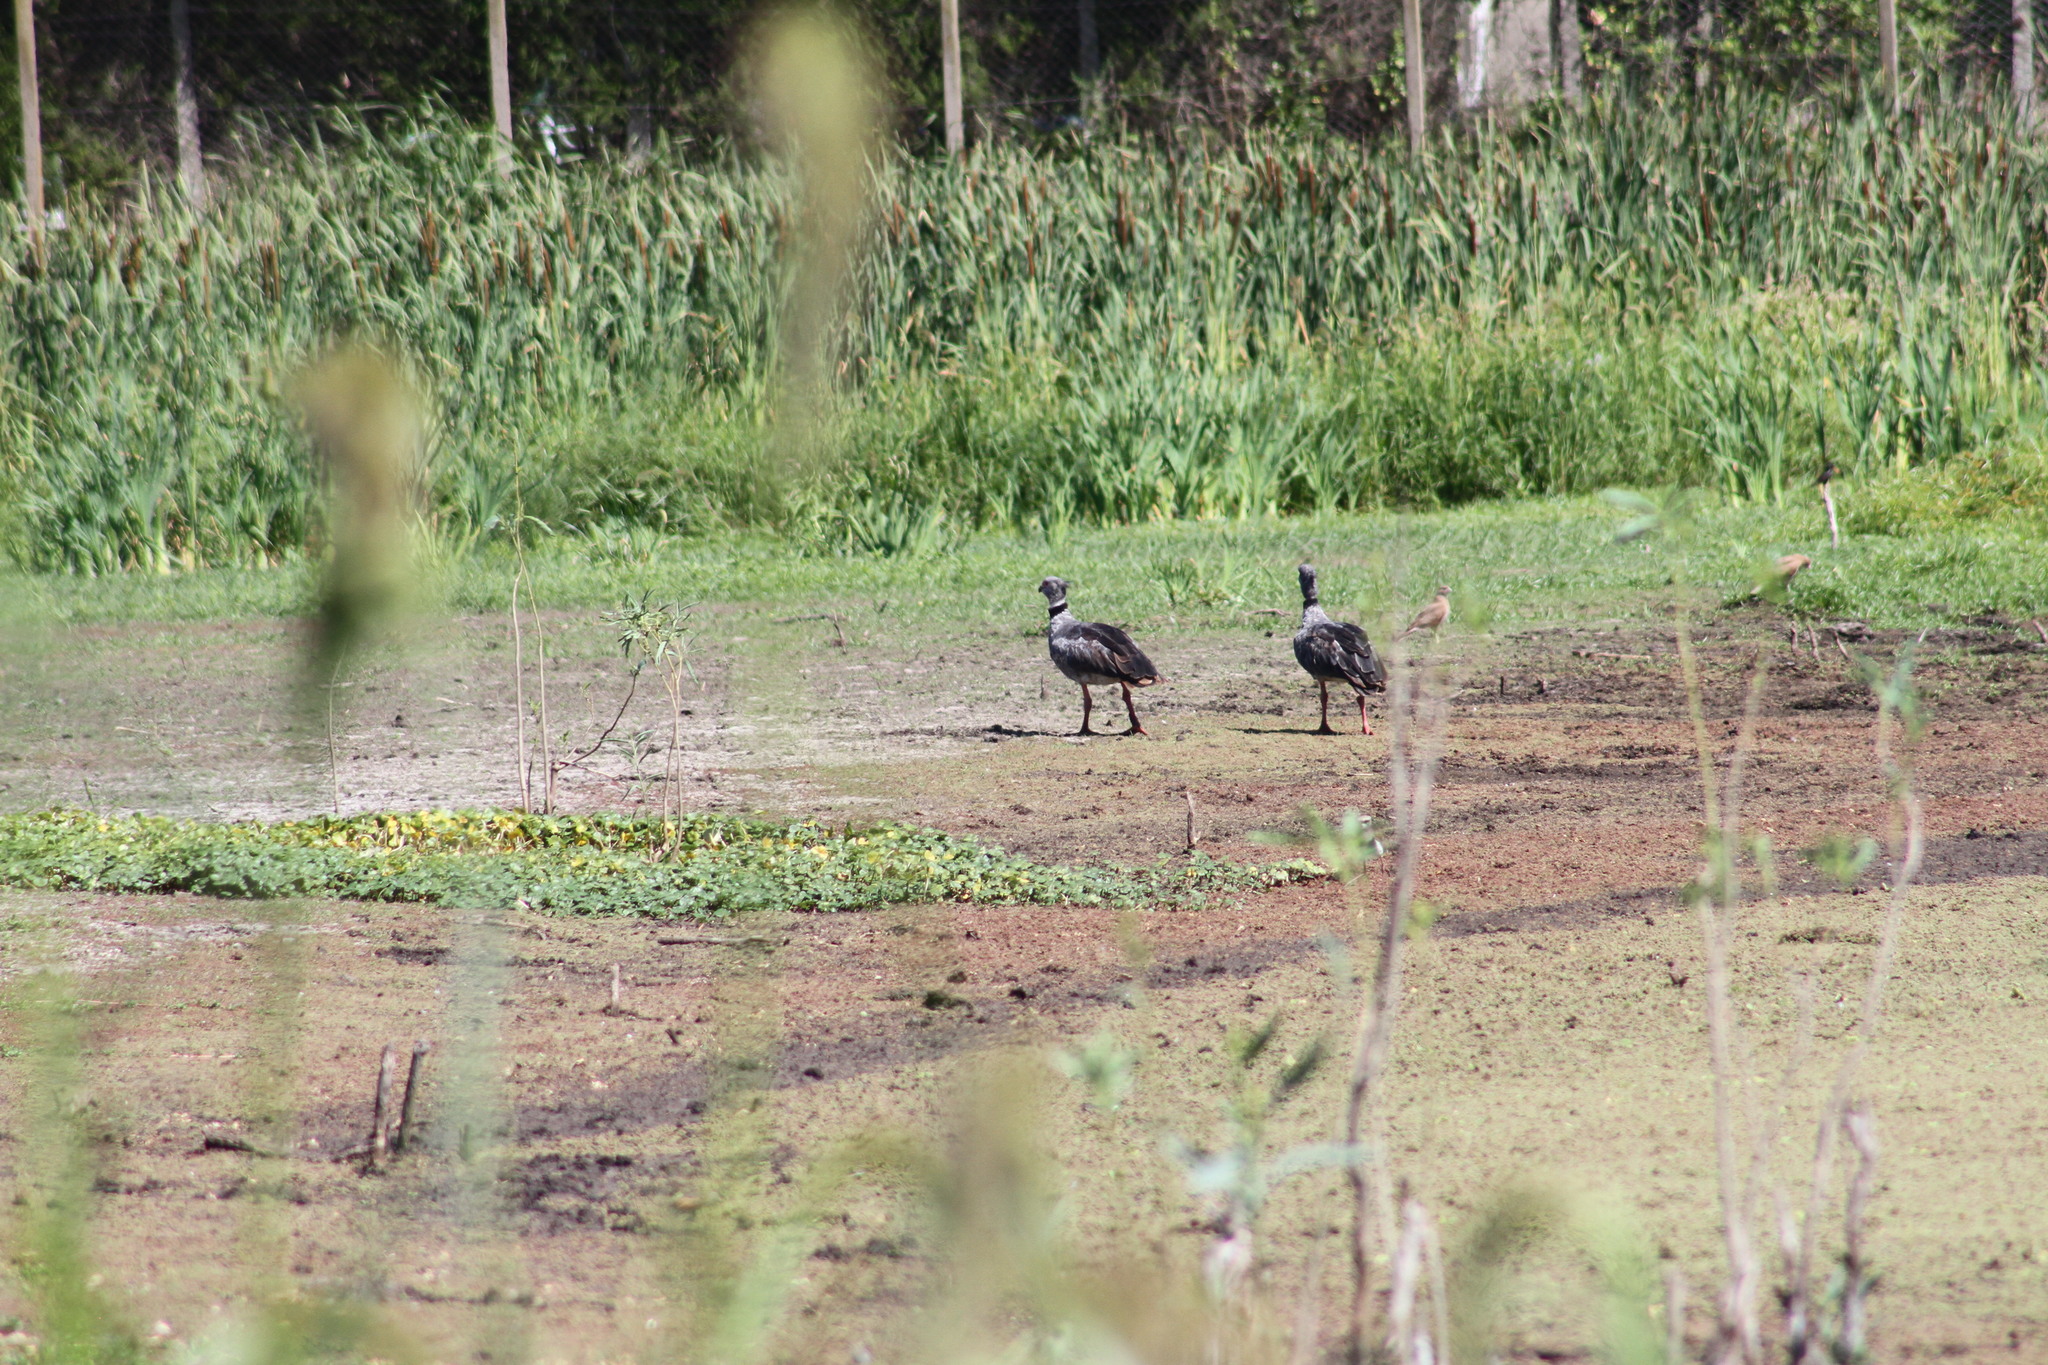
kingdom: Animalia
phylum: Chordata
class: Aves
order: Anseriformes
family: Anhimidae
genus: Chauna
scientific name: Chauna torquata
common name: Southern screamer
